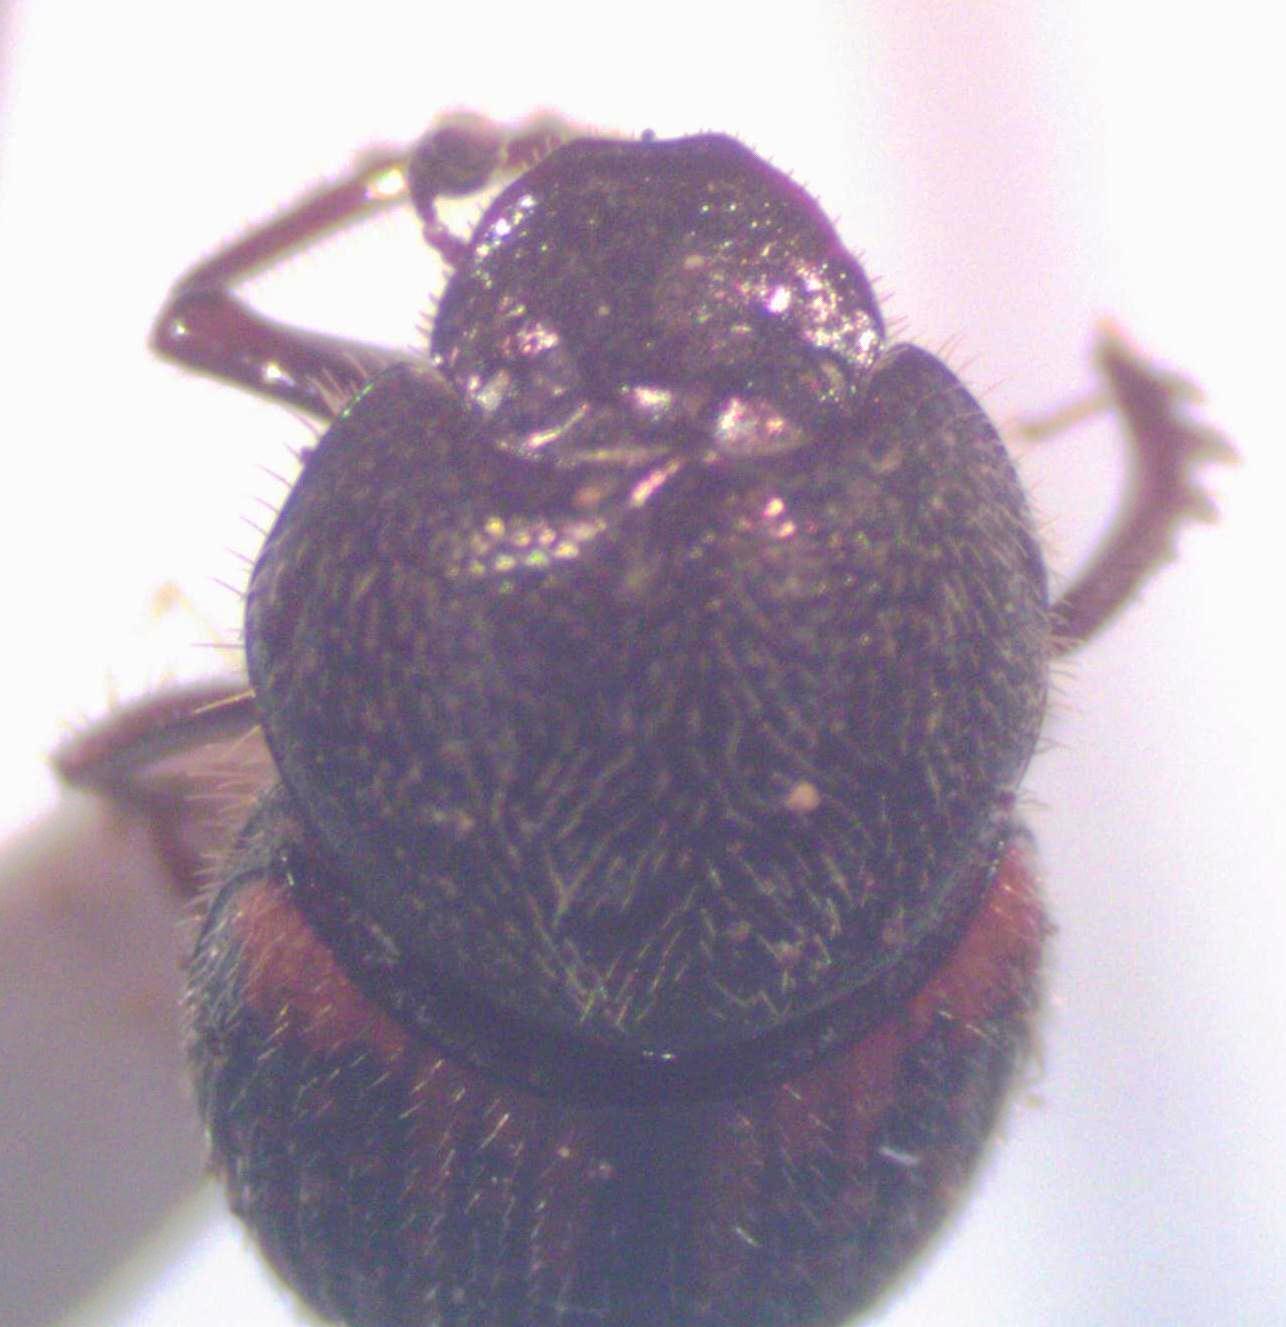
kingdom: Animalia
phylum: Arthropoda
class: Insecta
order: Coleoptera
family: Scarabaeidae
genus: Onthophagus
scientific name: Onthophagus hoepfneri
